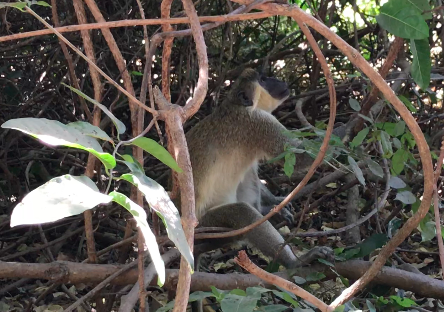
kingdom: Animalia
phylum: Chordata
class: Mammalia
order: Primates
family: Cercopithecidae
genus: Chlorocebus
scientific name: Chlorocebus sabaeus
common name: Green monkey
